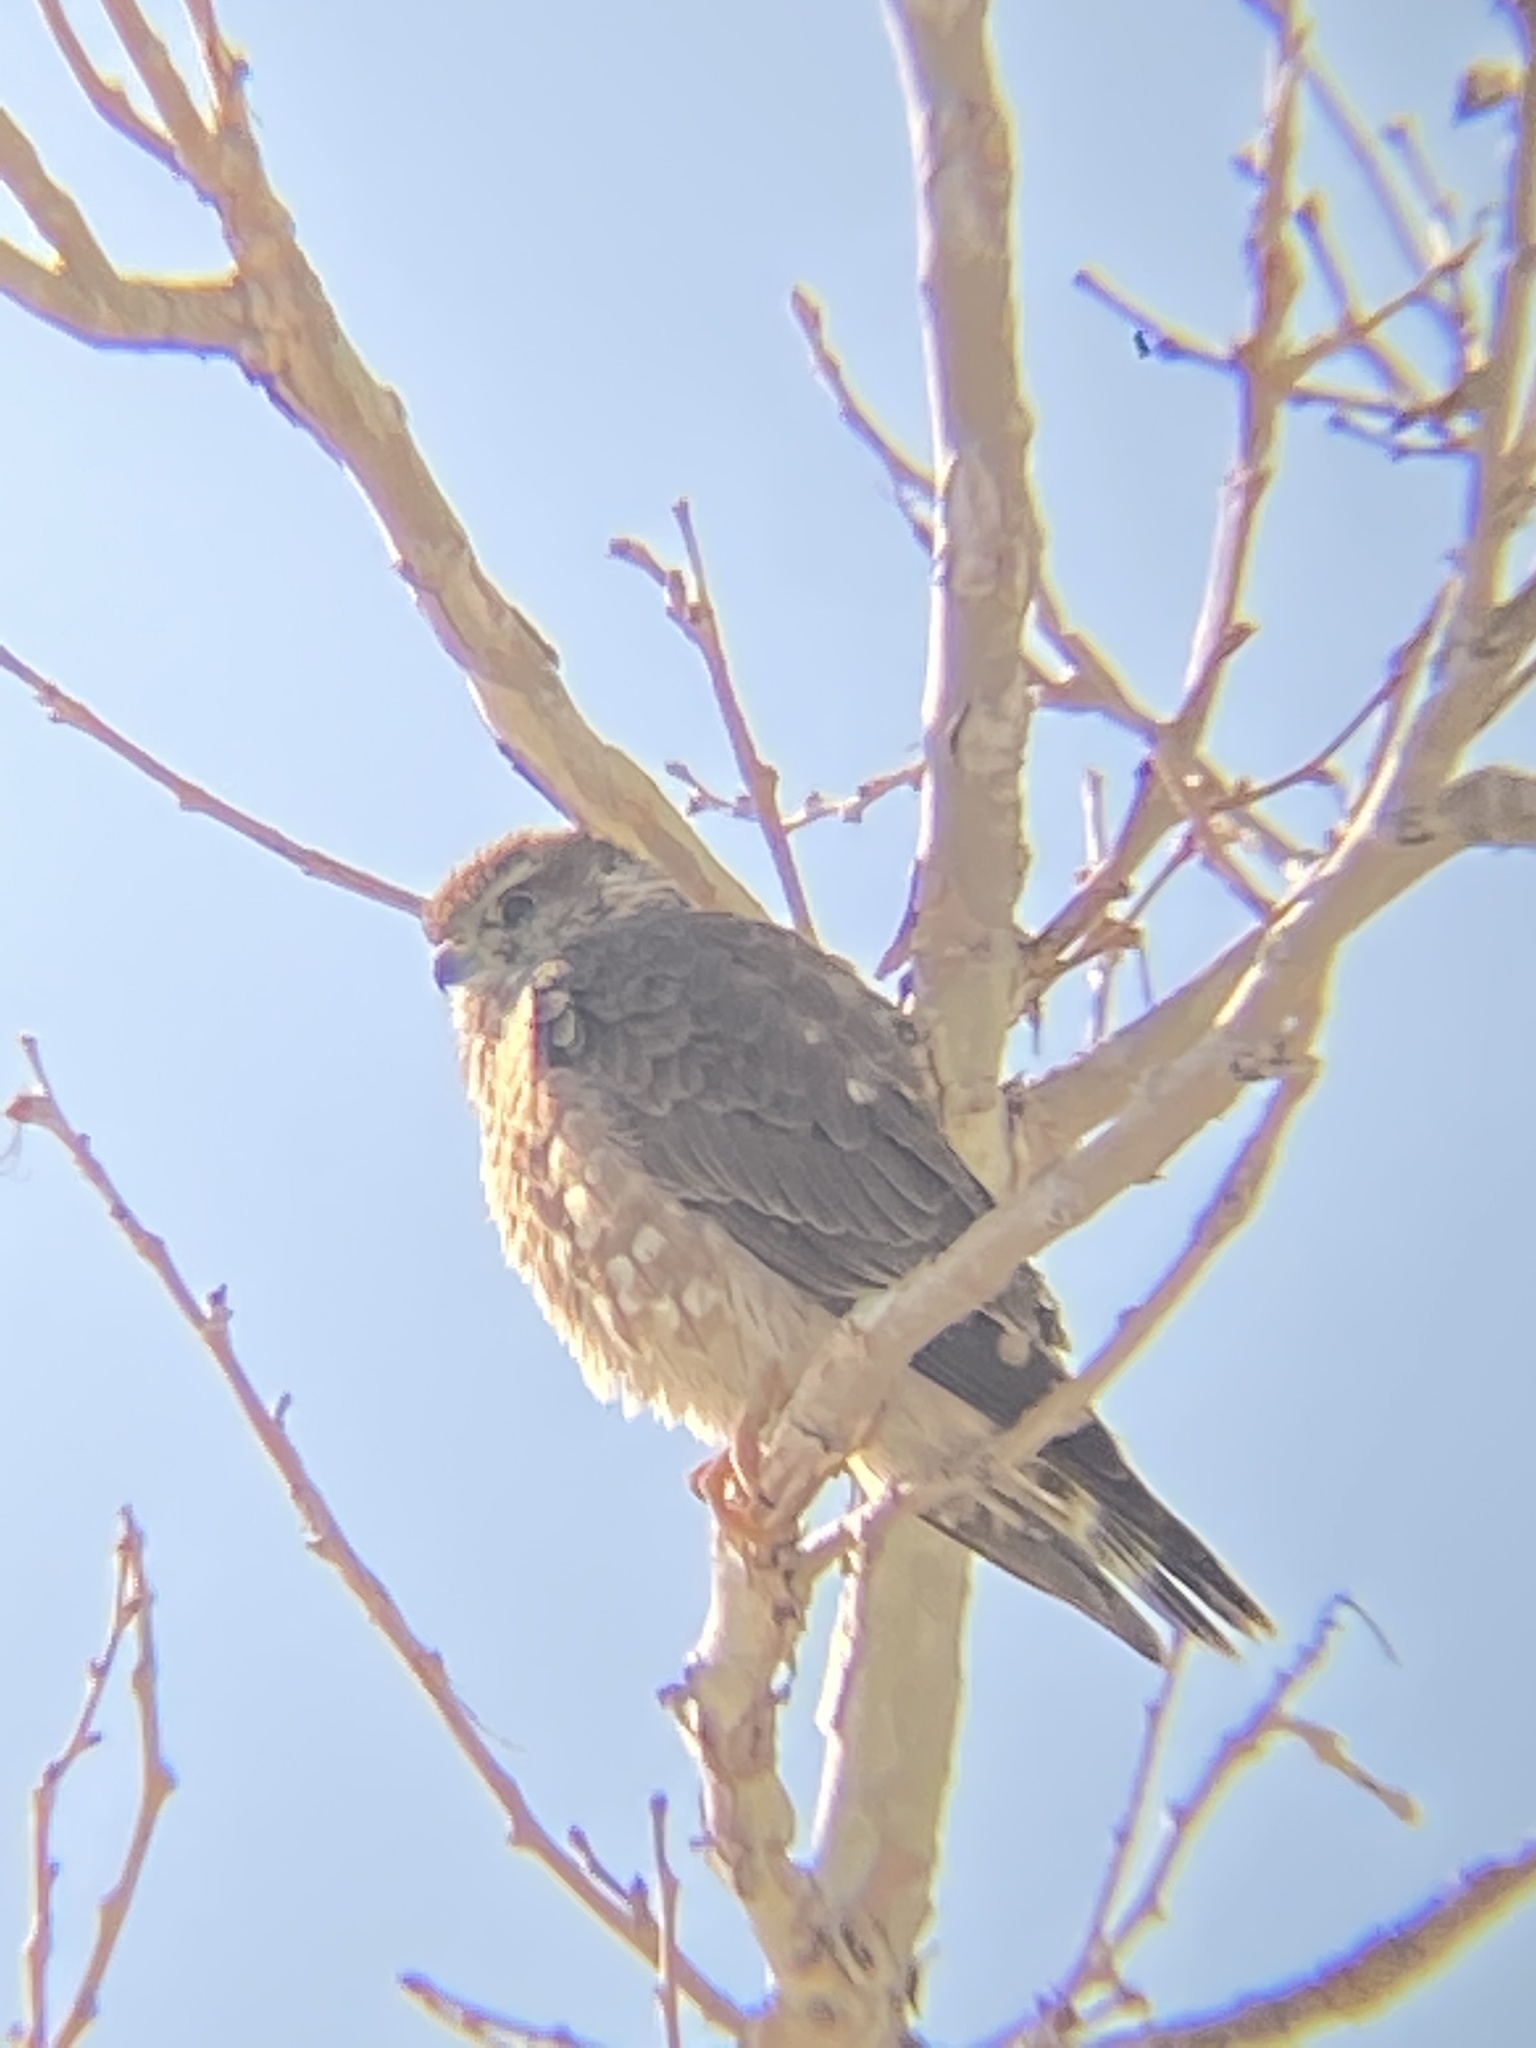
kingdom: Animalia
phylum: Chordata
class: Aves
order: Falconiformes
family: Falconidae
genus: Falco
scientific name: Falco columbarius
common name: Merlin
